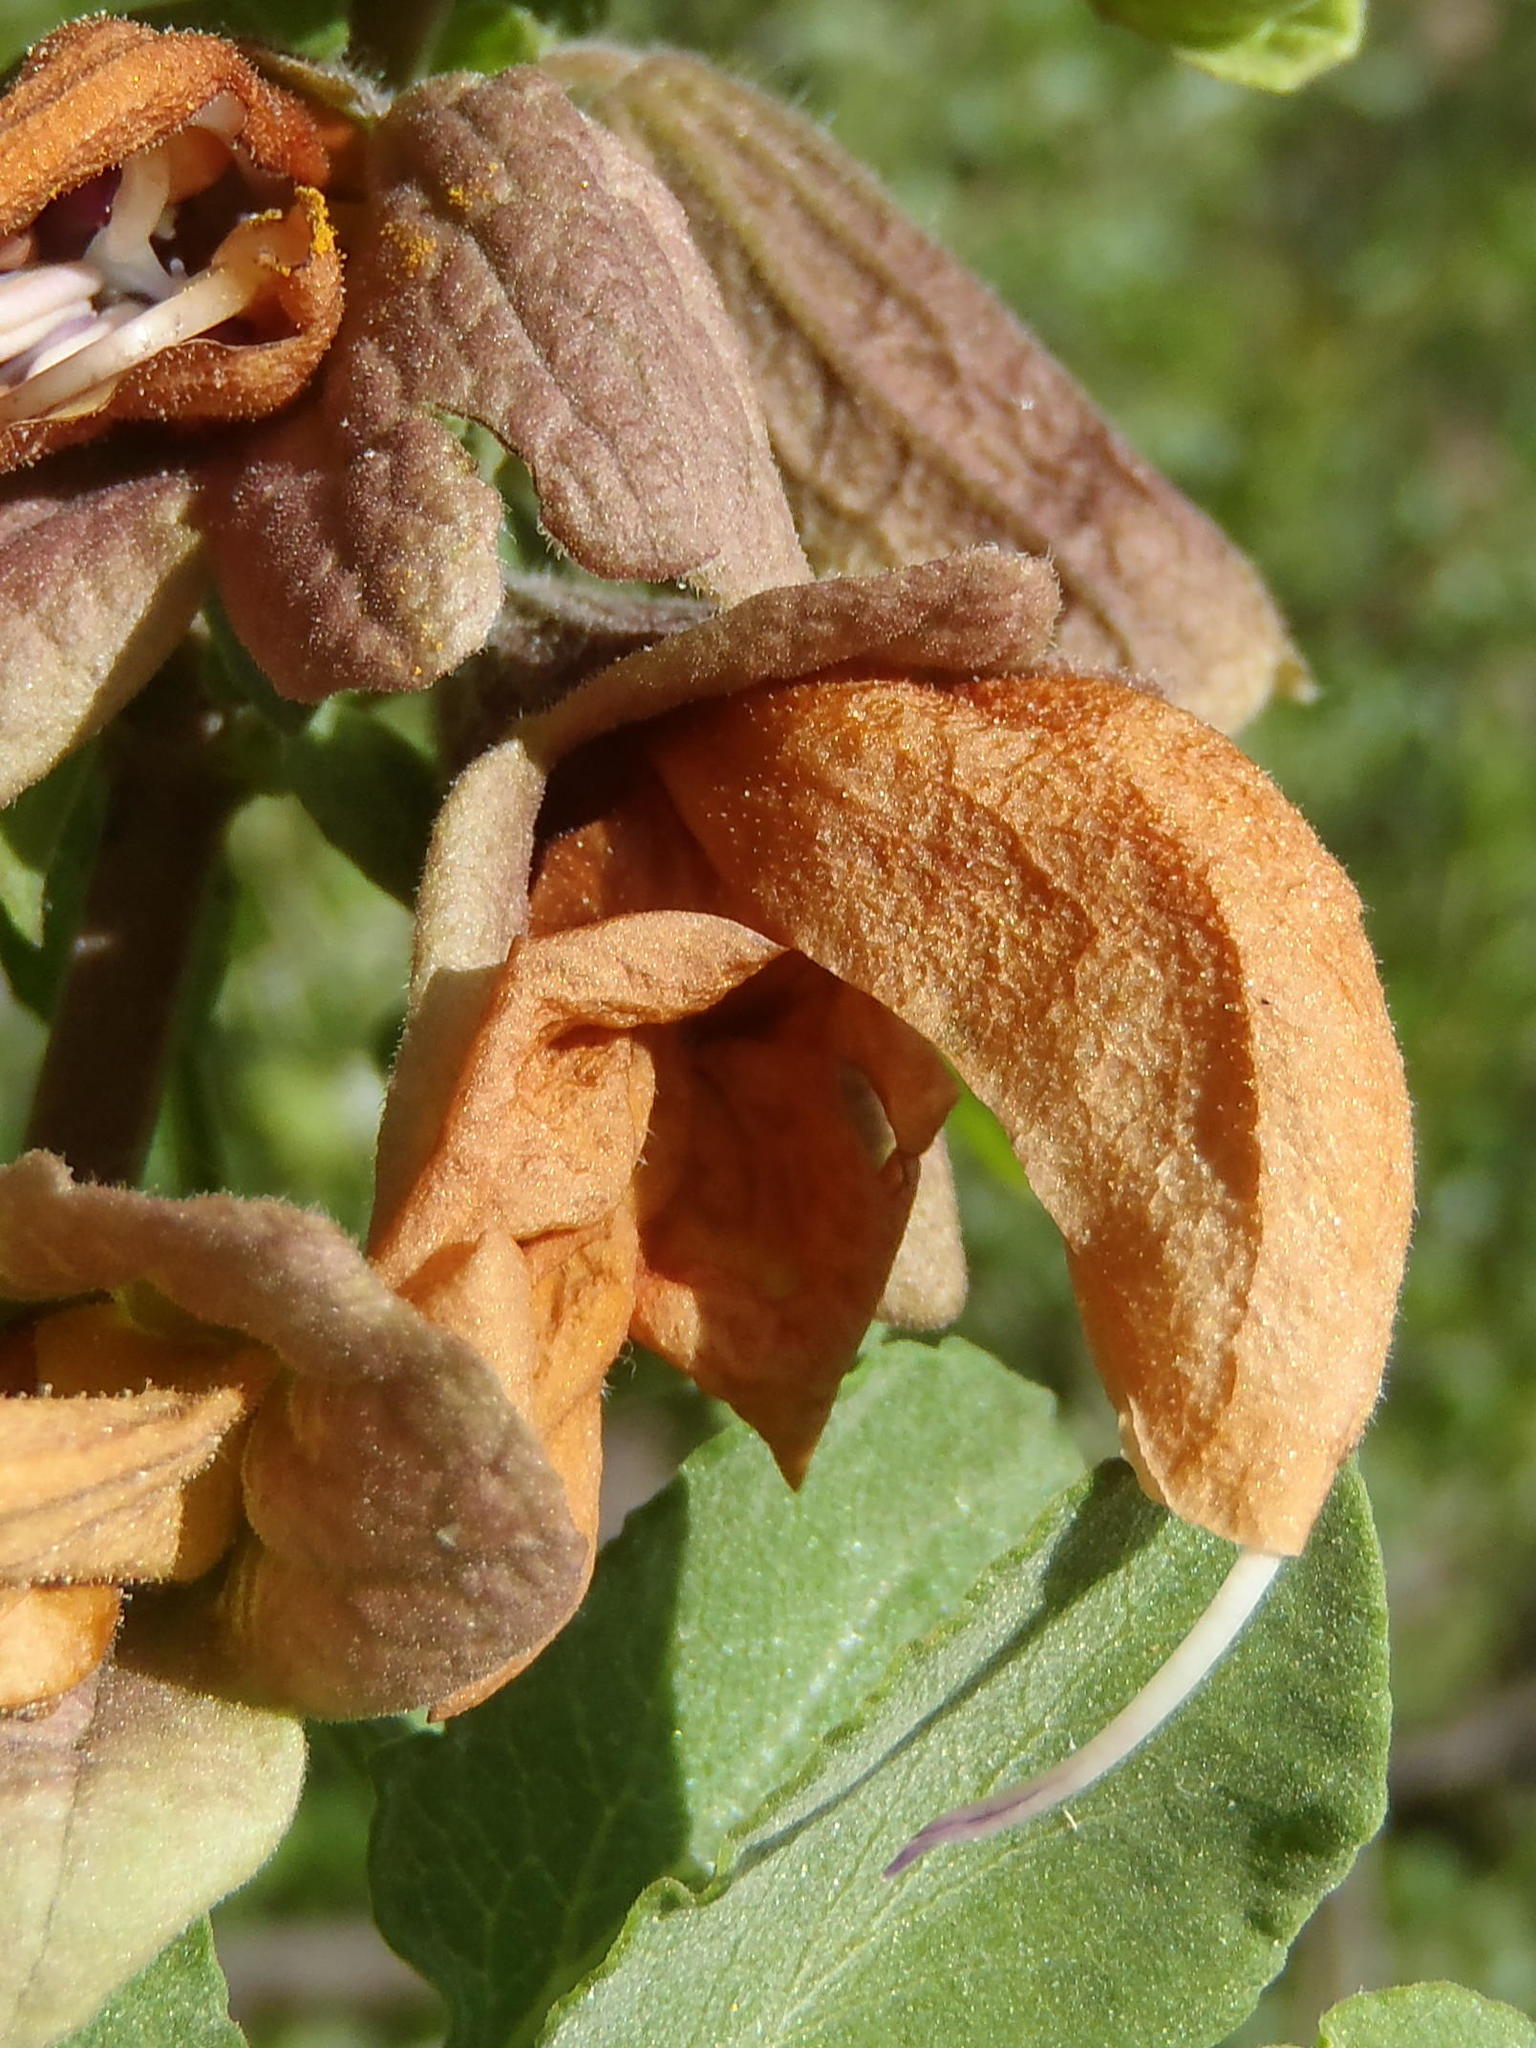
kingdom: Plantae
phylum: Tracheophyta
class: Magnoliopsida
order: Lamiales
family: Lamiaceae
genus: Salvia
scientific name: Salvia aurea
